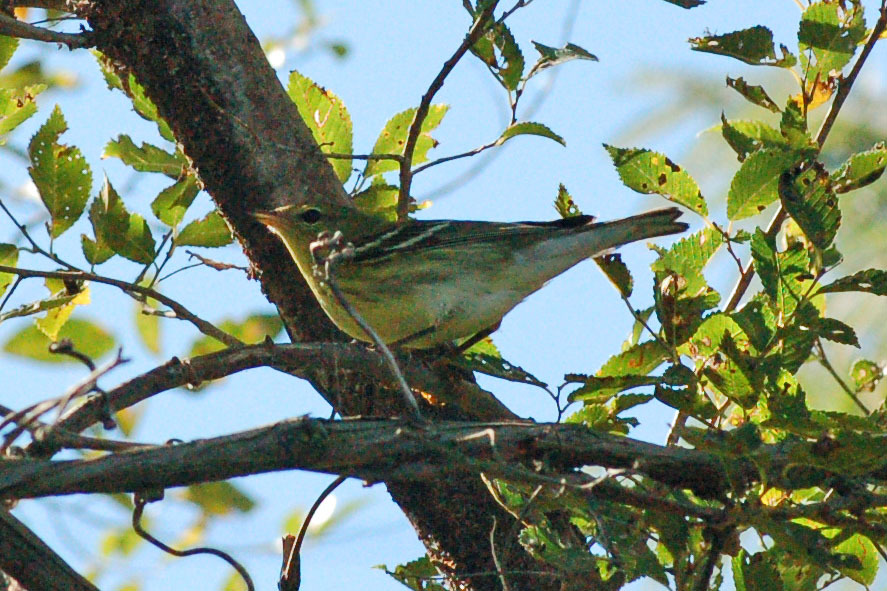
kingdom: Animalia
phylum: Chordata
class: Aves
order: Passeriformes
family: Parulidae
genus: Setophaga
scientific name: Setophaga striata
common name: Blackpoll warbler
